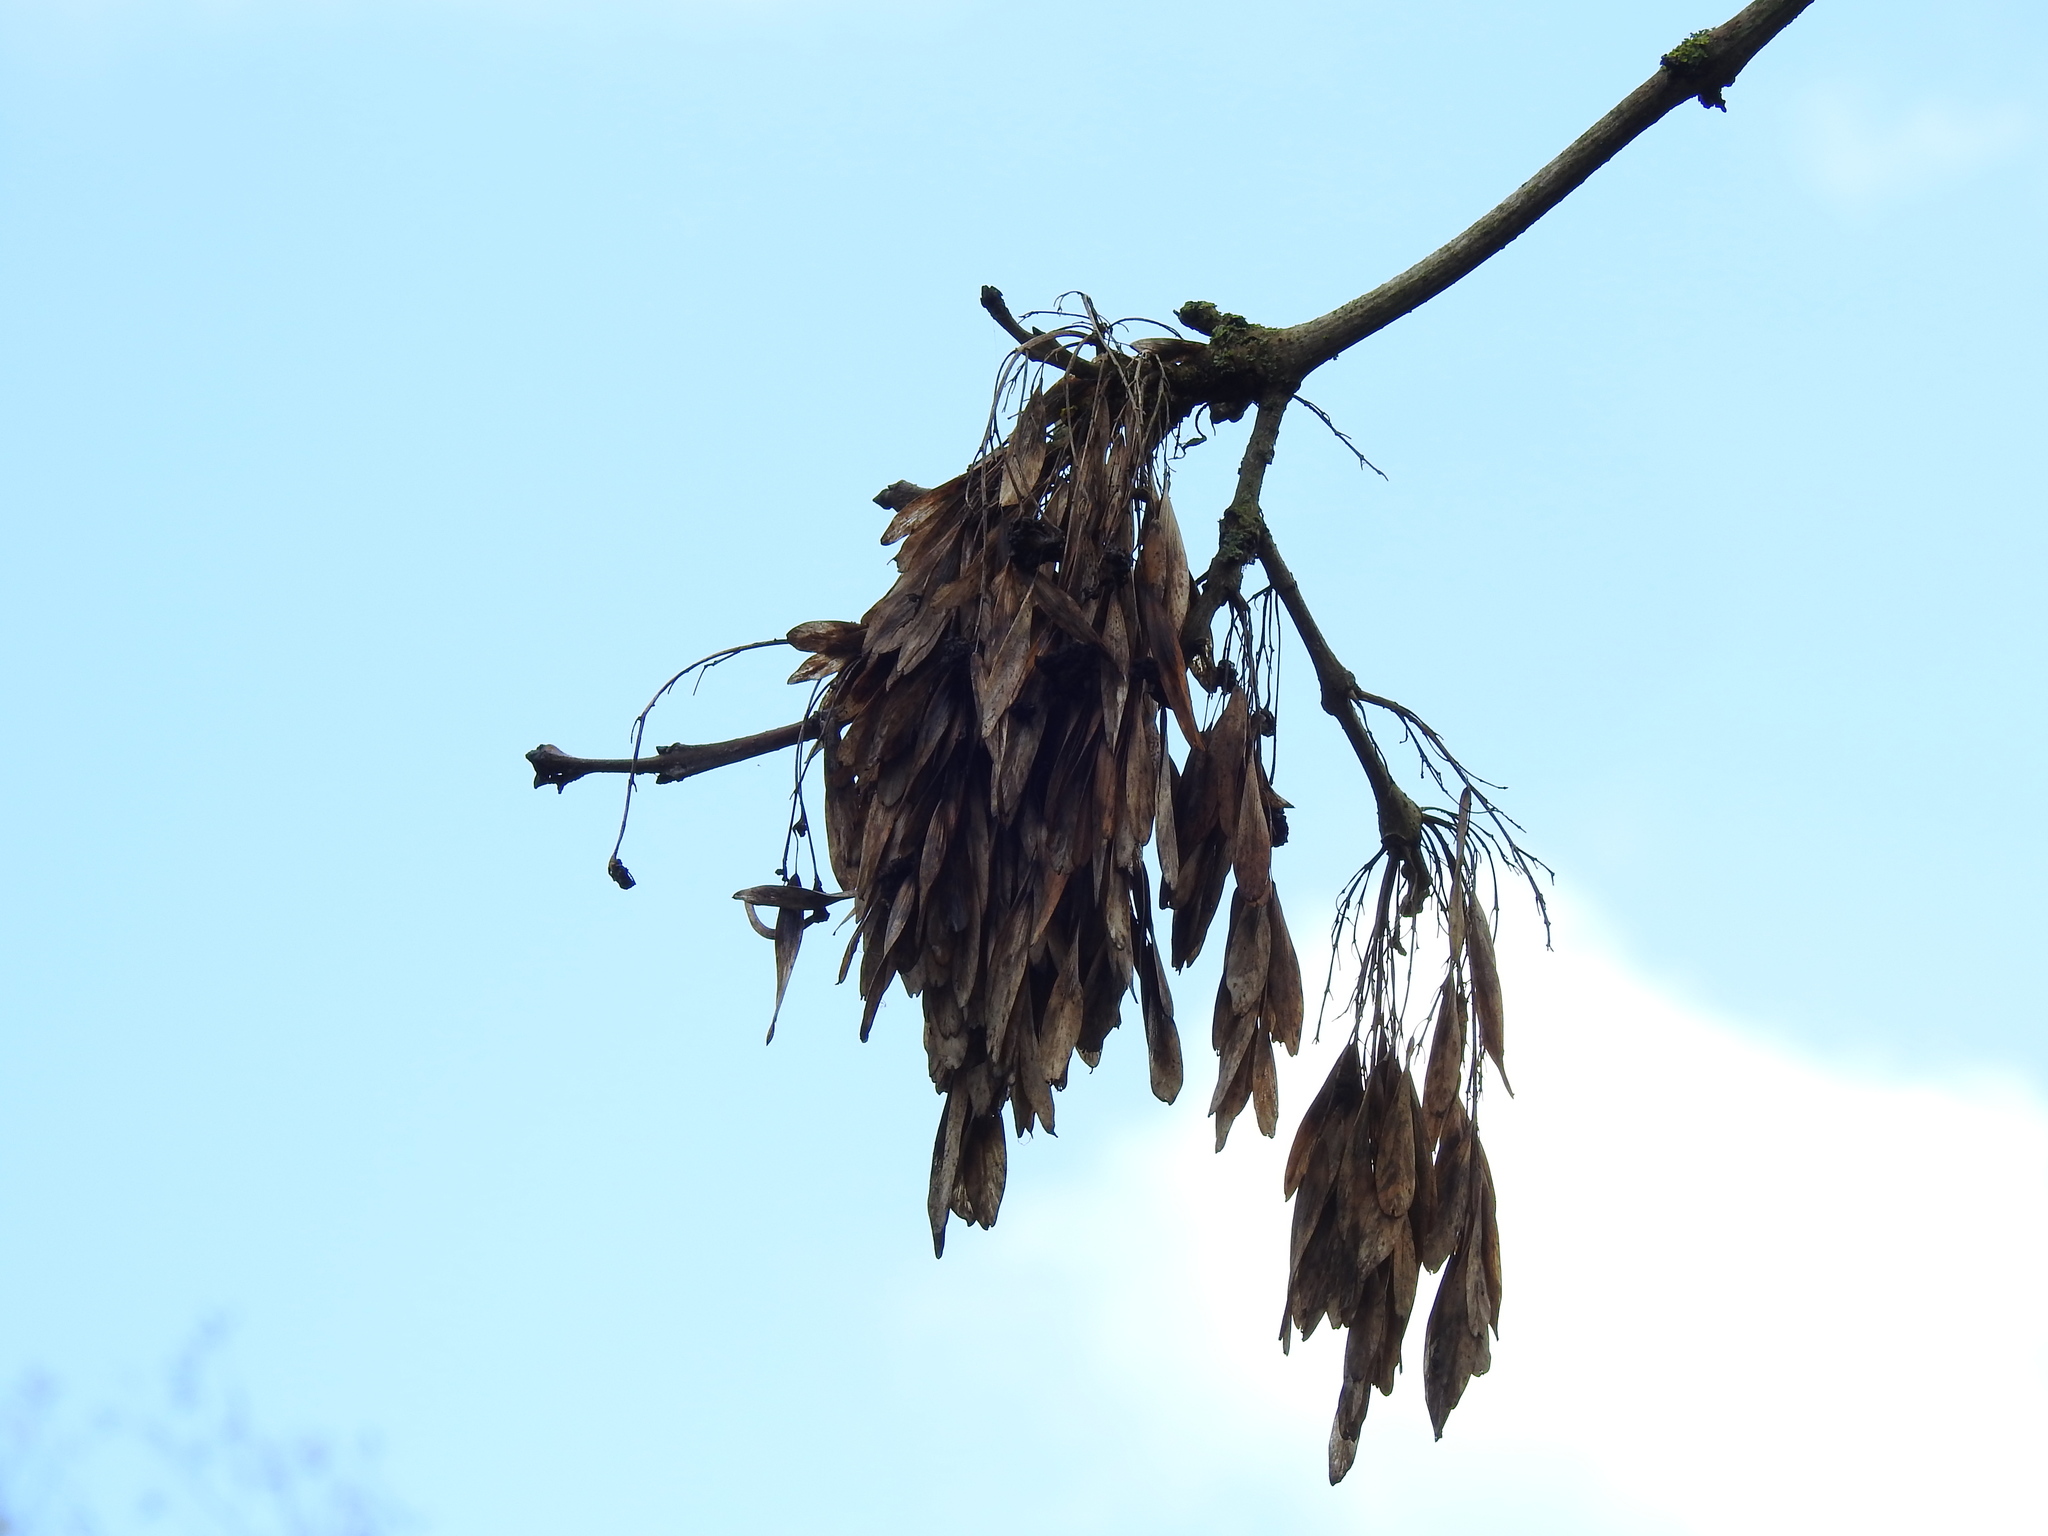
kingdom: Plantae
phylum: Tracheophyta
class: Magnoliopsida
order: Lamiales
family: Oleaceae
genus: Fraxinus
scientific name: Fraxinus excelsior
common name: European ash
